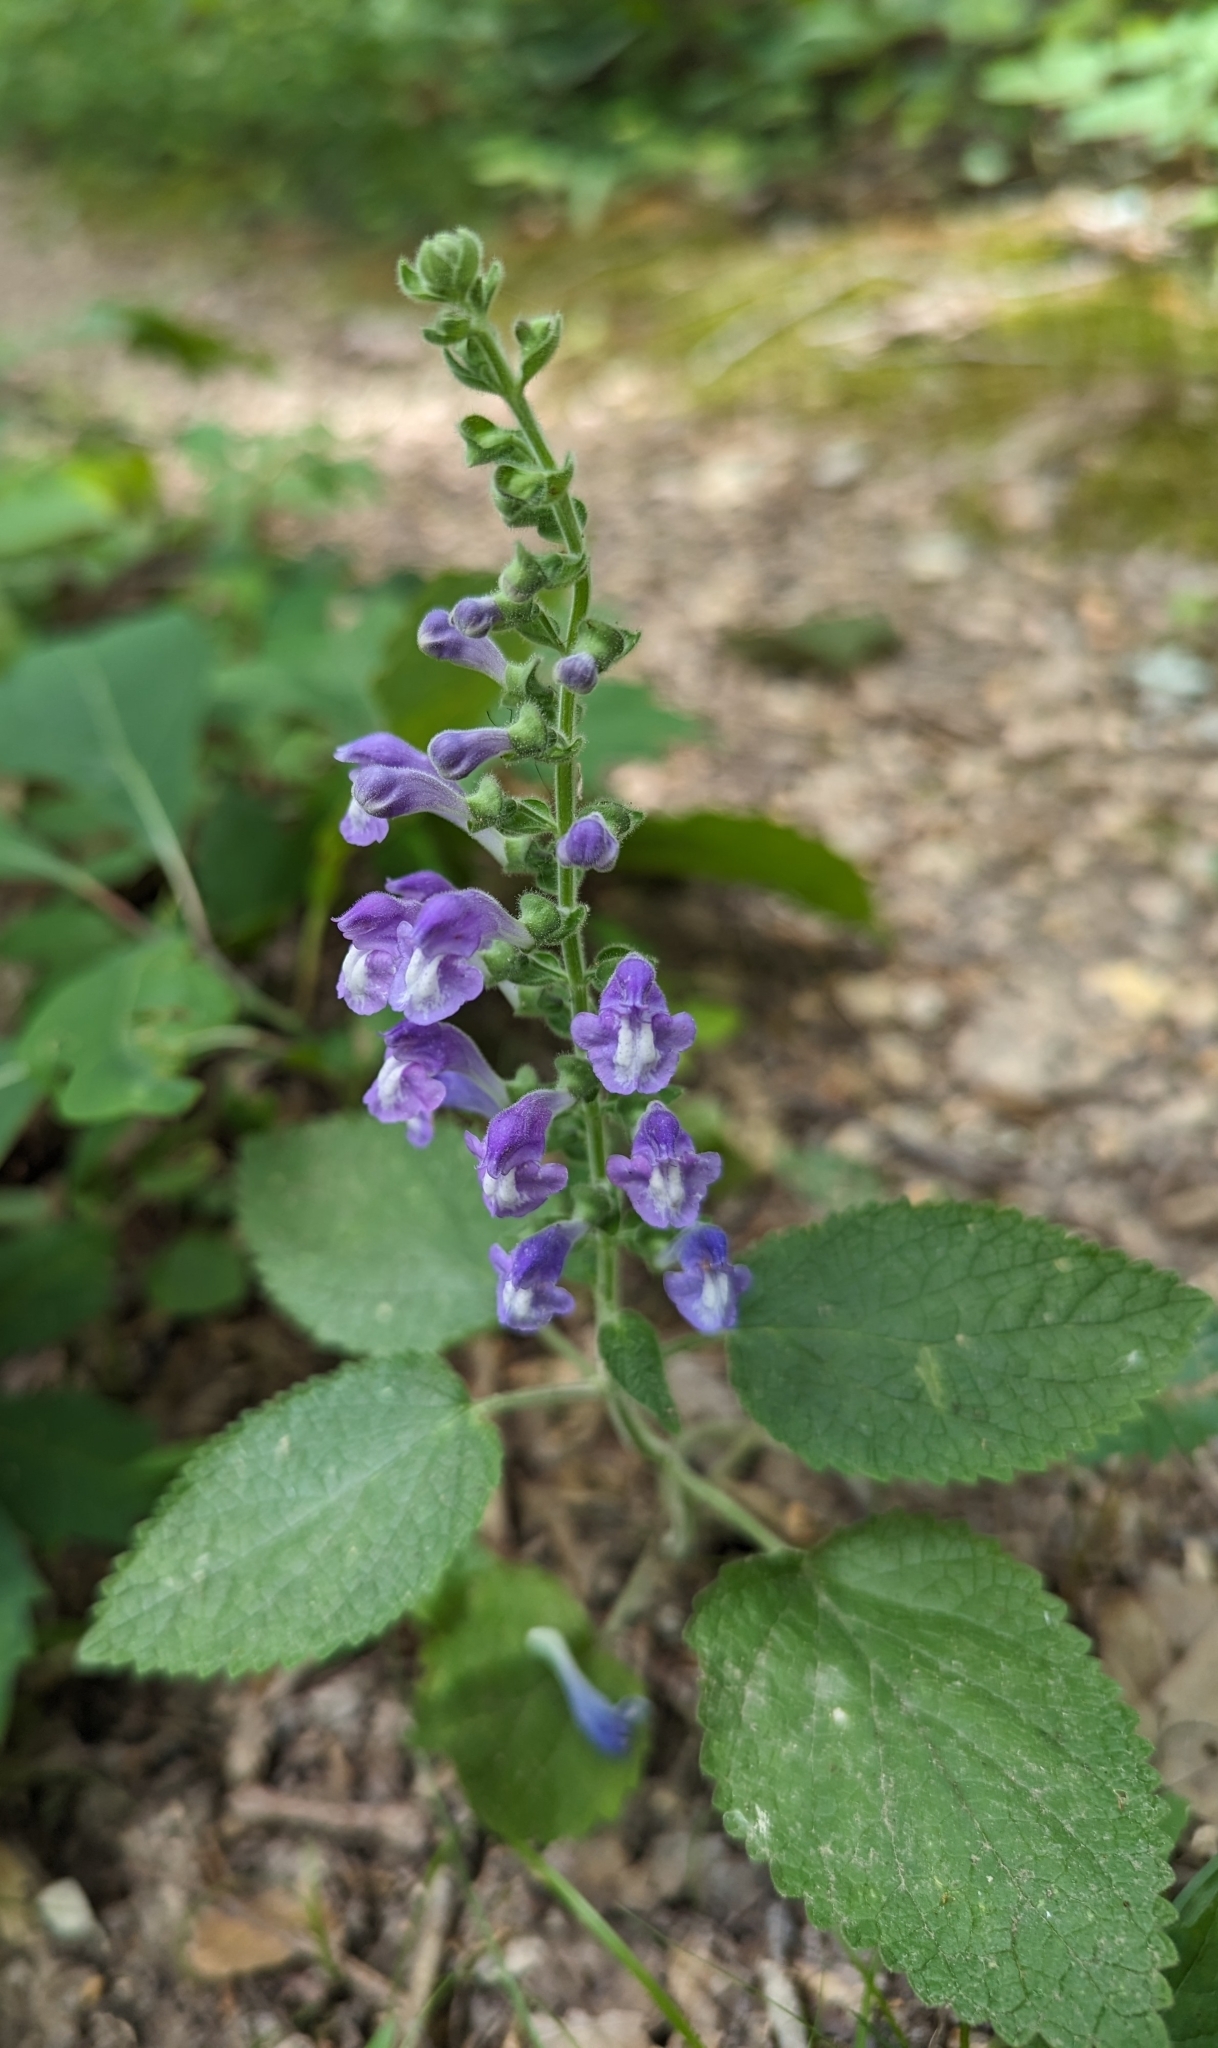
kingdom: Plantae
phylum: Tracheophyta
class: Magnoliopsida
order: Lamiales
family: Lamiaceae
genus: Scutellaria
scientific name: Scutellaria ovata
